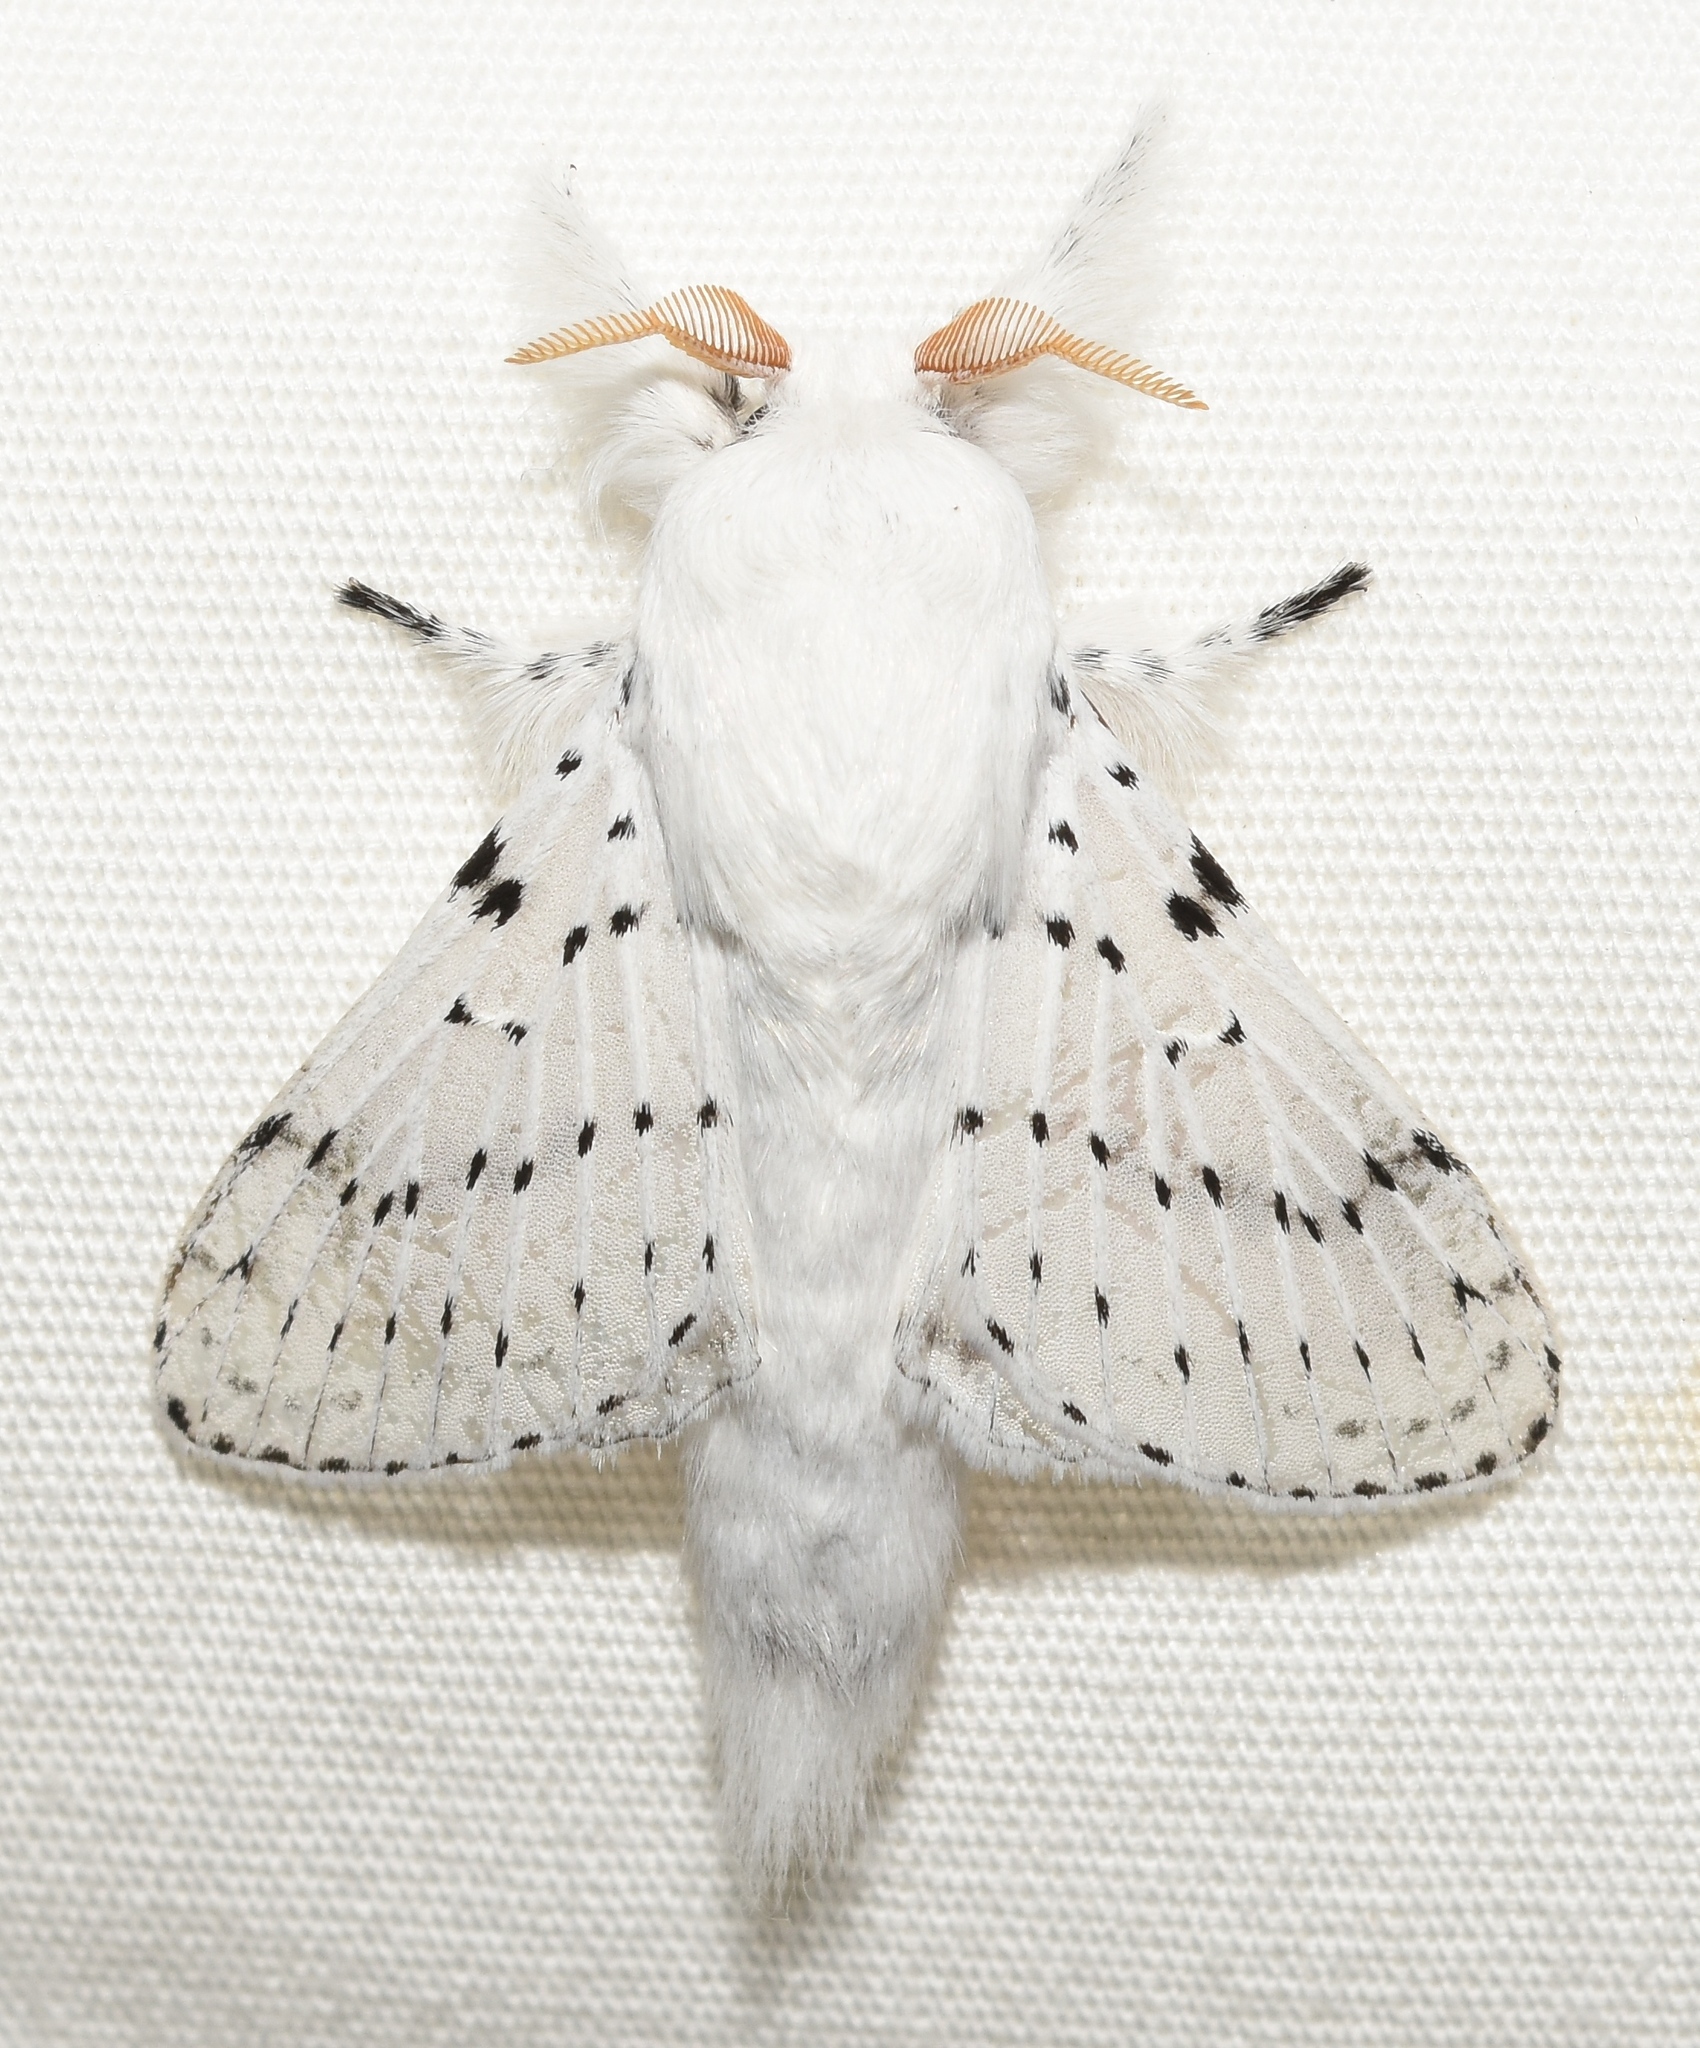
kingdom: Animalia
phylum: Arthropoda
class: Insecta
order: Lepidoptera
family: Lasiocampidae
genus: Artace
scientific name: Artace cribrarius
